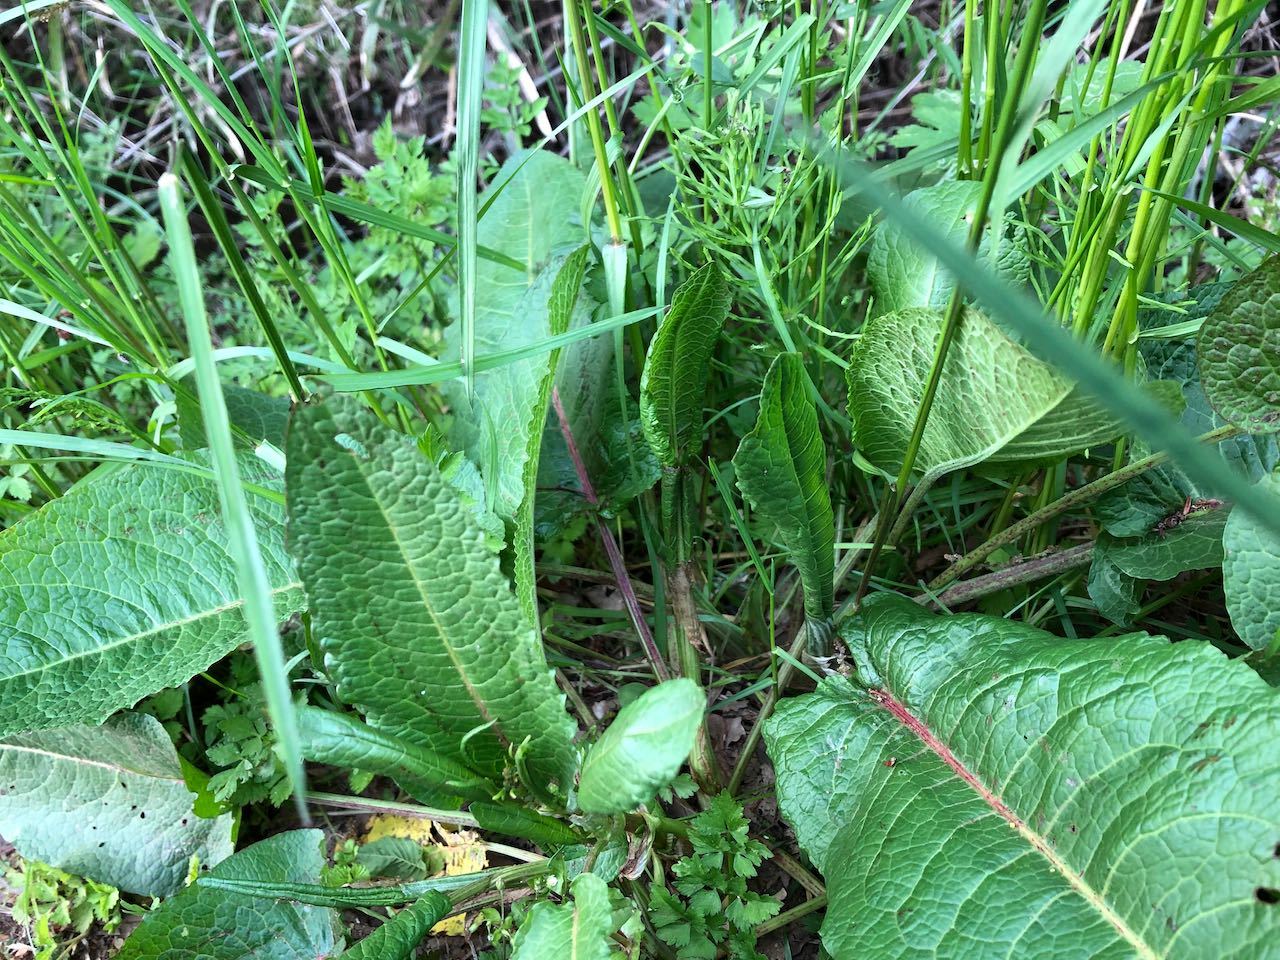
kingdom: Plantae
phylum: Tracheophyta
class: Magnoliopsida
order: Caryophyllales
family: Polygonaceae
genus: Rumex
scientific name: Rumex japonicus
